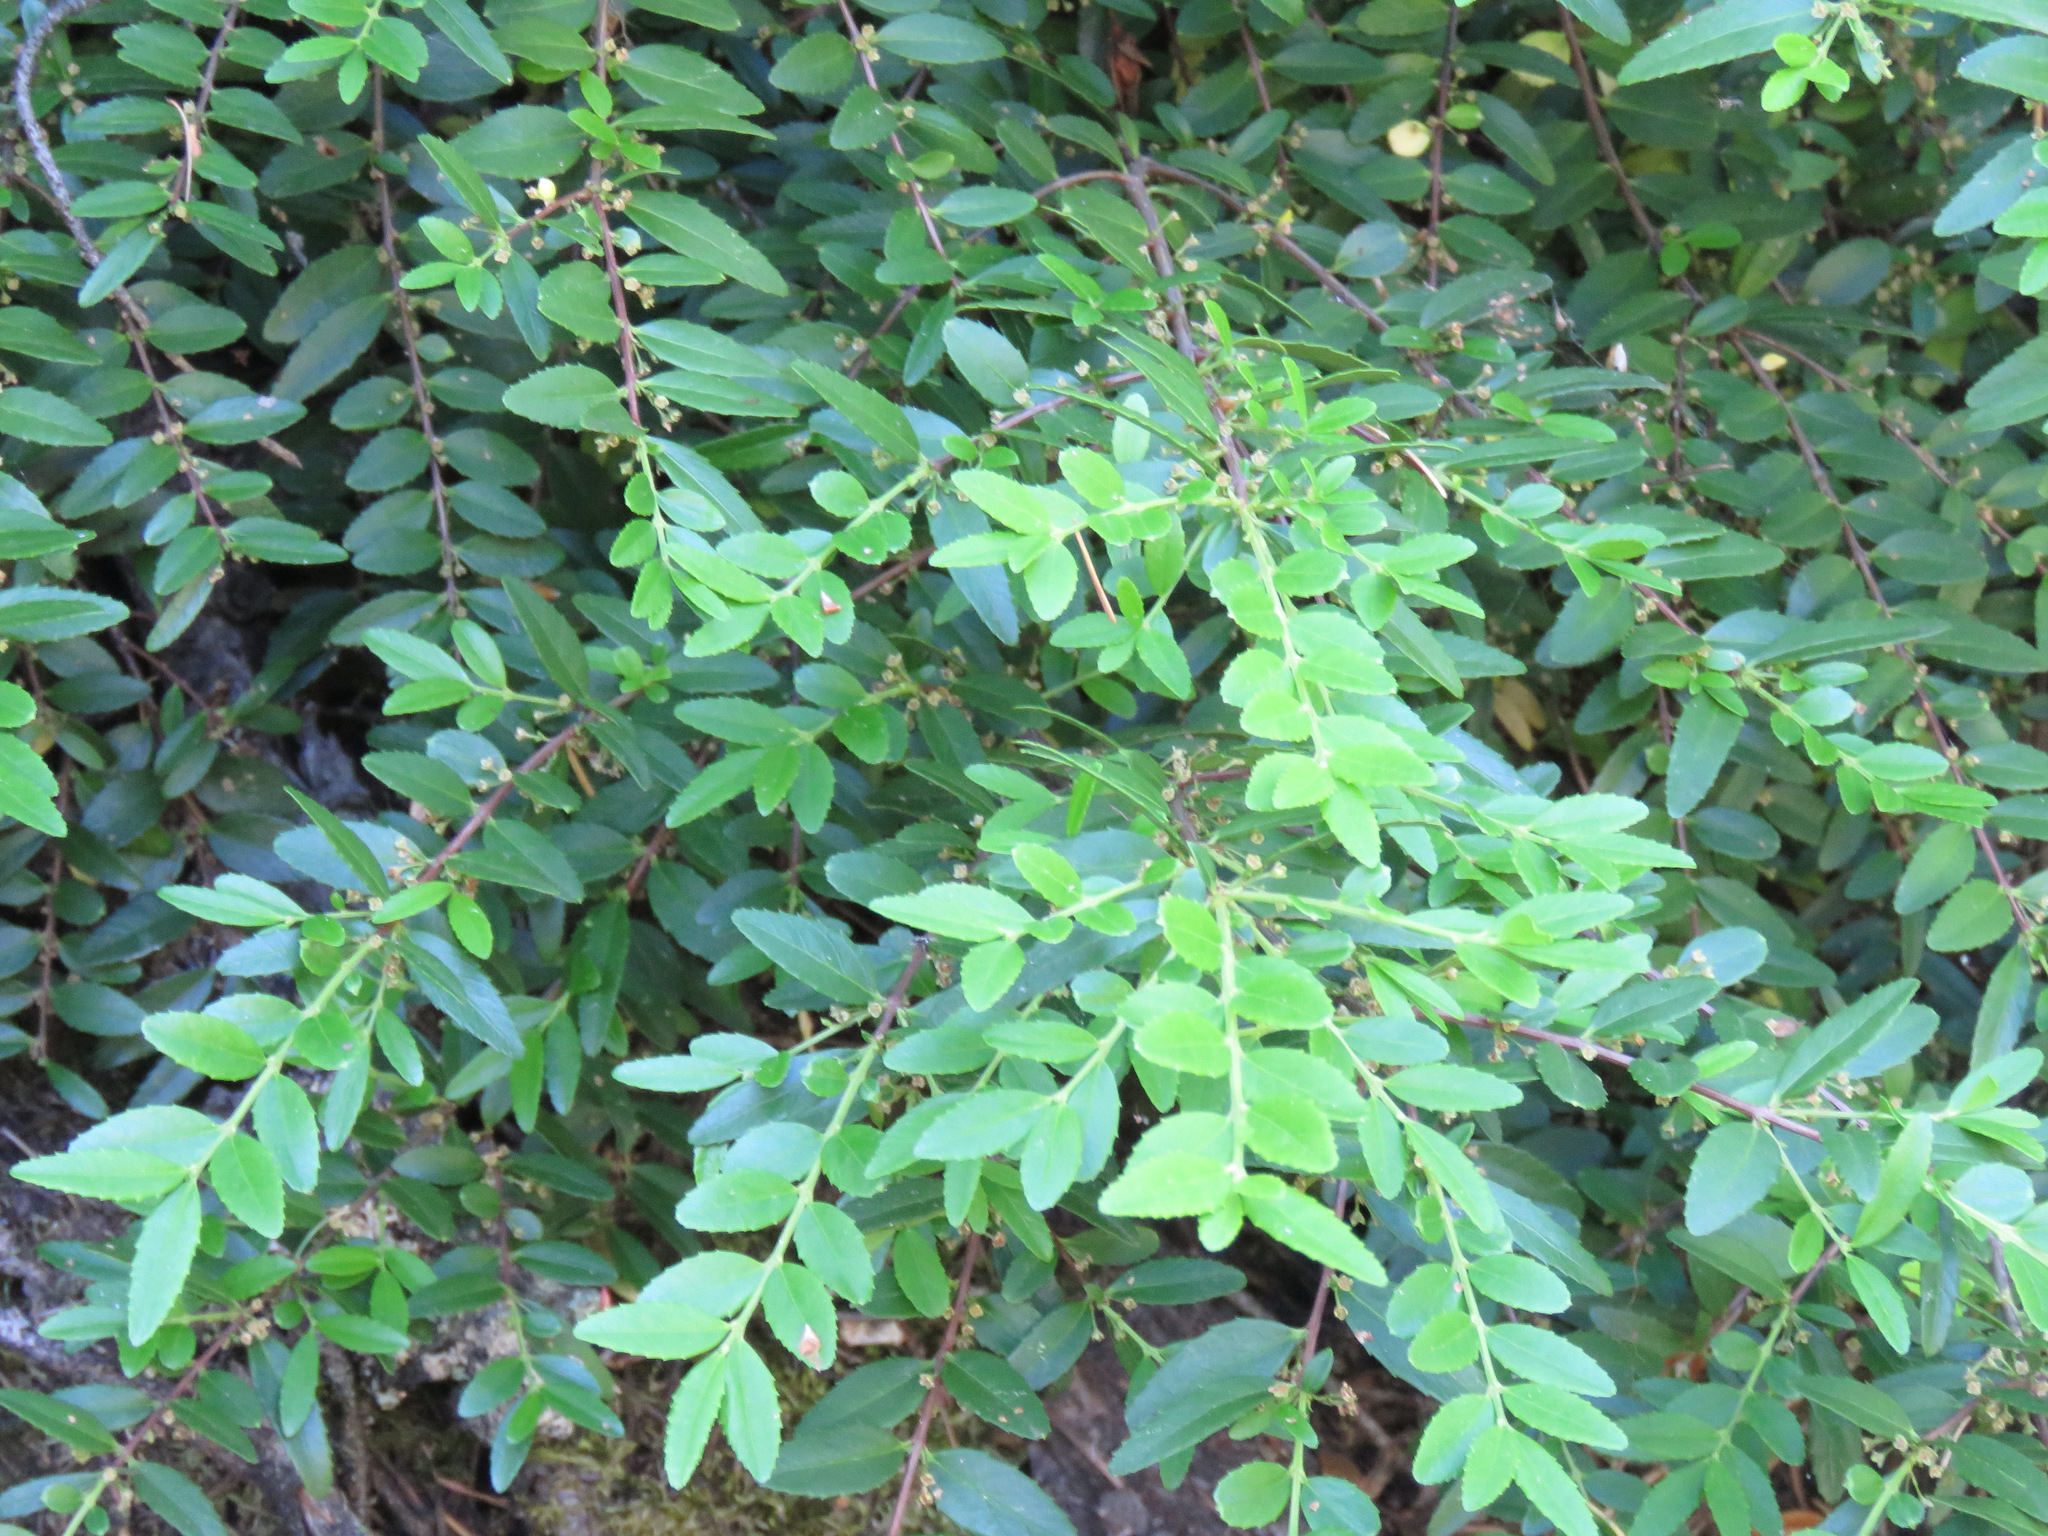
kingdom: Plantae
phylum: Tracheophyta
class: Magnoliopsida
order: Celastrales
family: Celastraceae
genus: Paxistima
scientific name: Paxistima myrsinites
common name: Mountain-lover
